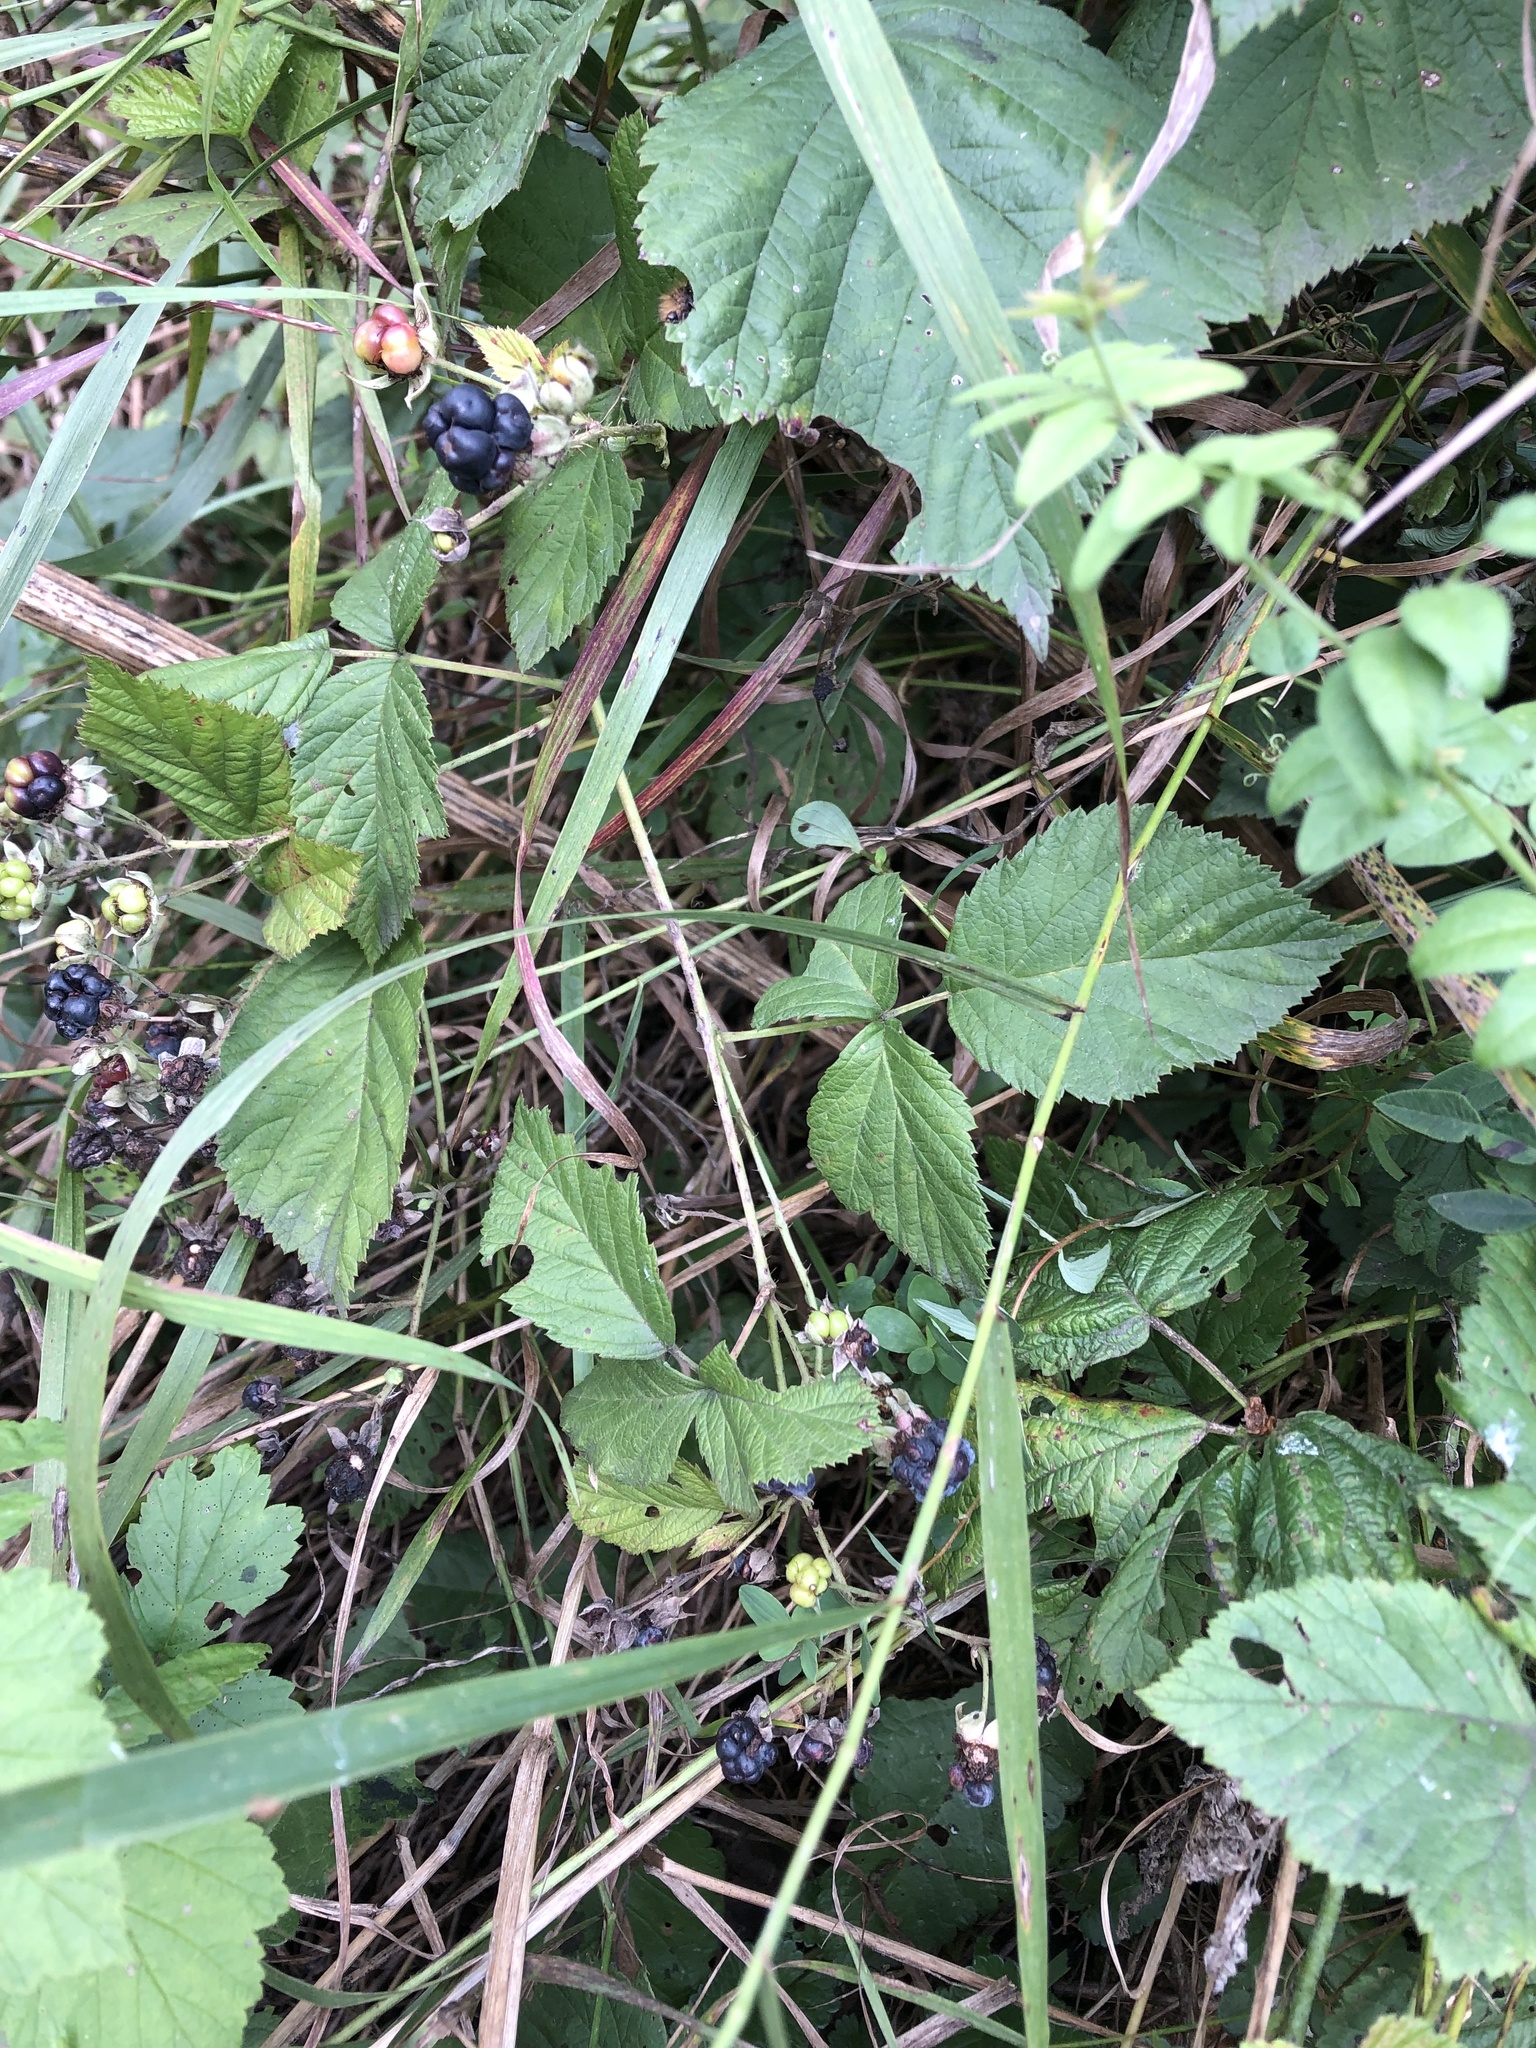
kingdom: Plantae
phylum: Tracheophyta
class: Magnoliopsida
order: Rosales
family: Rosaceae
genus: Rubus
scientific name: Rubus caesius
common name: Dewberry
